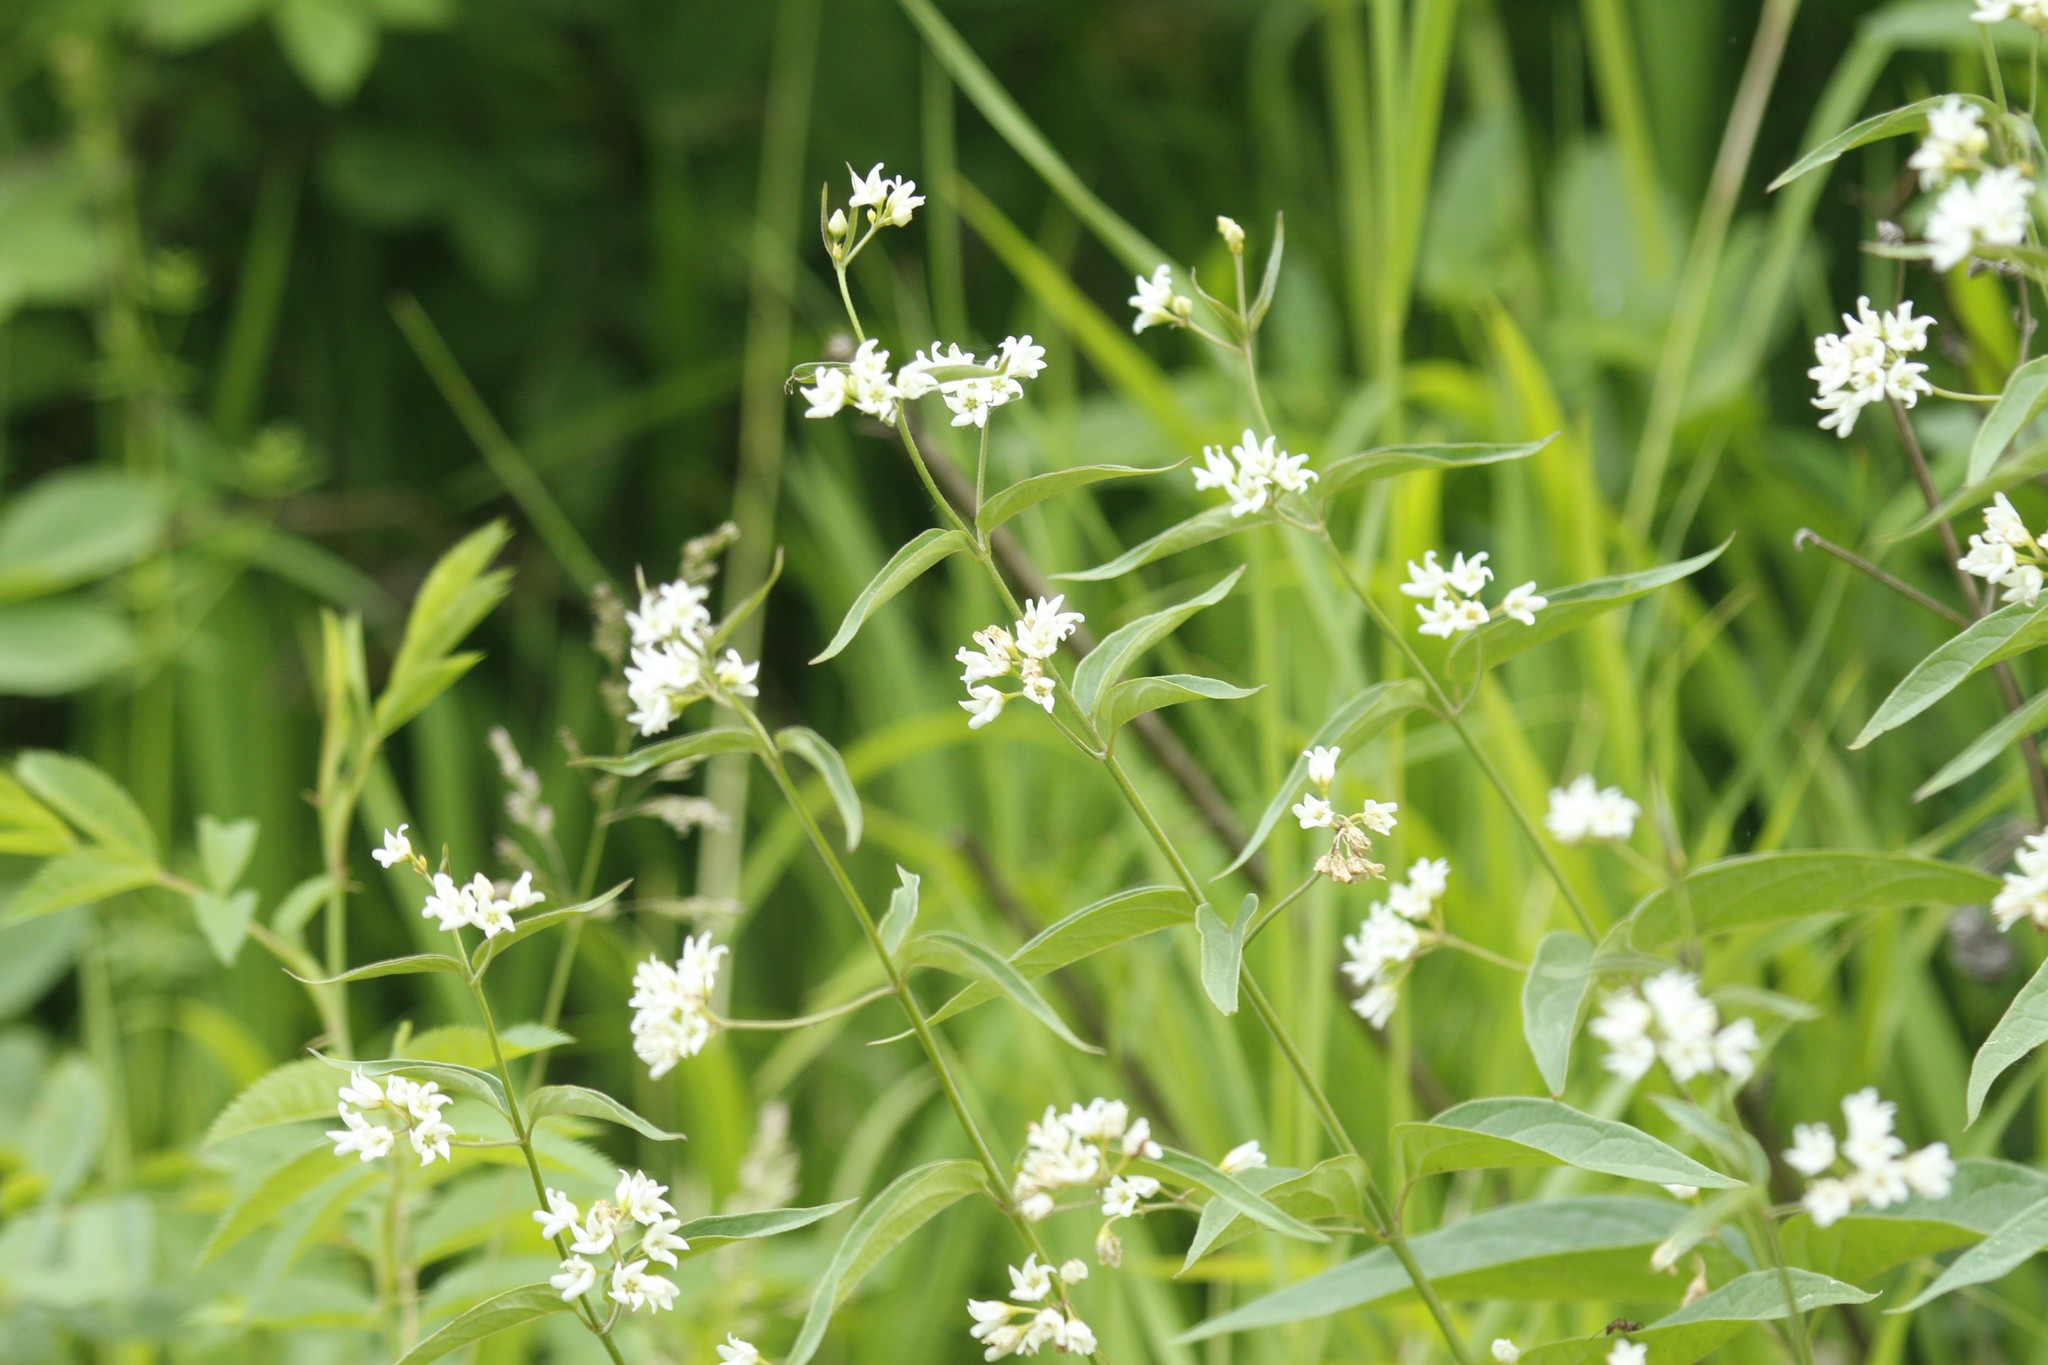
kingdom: Plantae
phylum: Tracheophyta
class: Magnoliopsida
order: Gentianales
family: Apocynaceae
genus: Vincetoxicum
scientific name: Vincetoxicum hirundinaria
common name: White swallowwort
